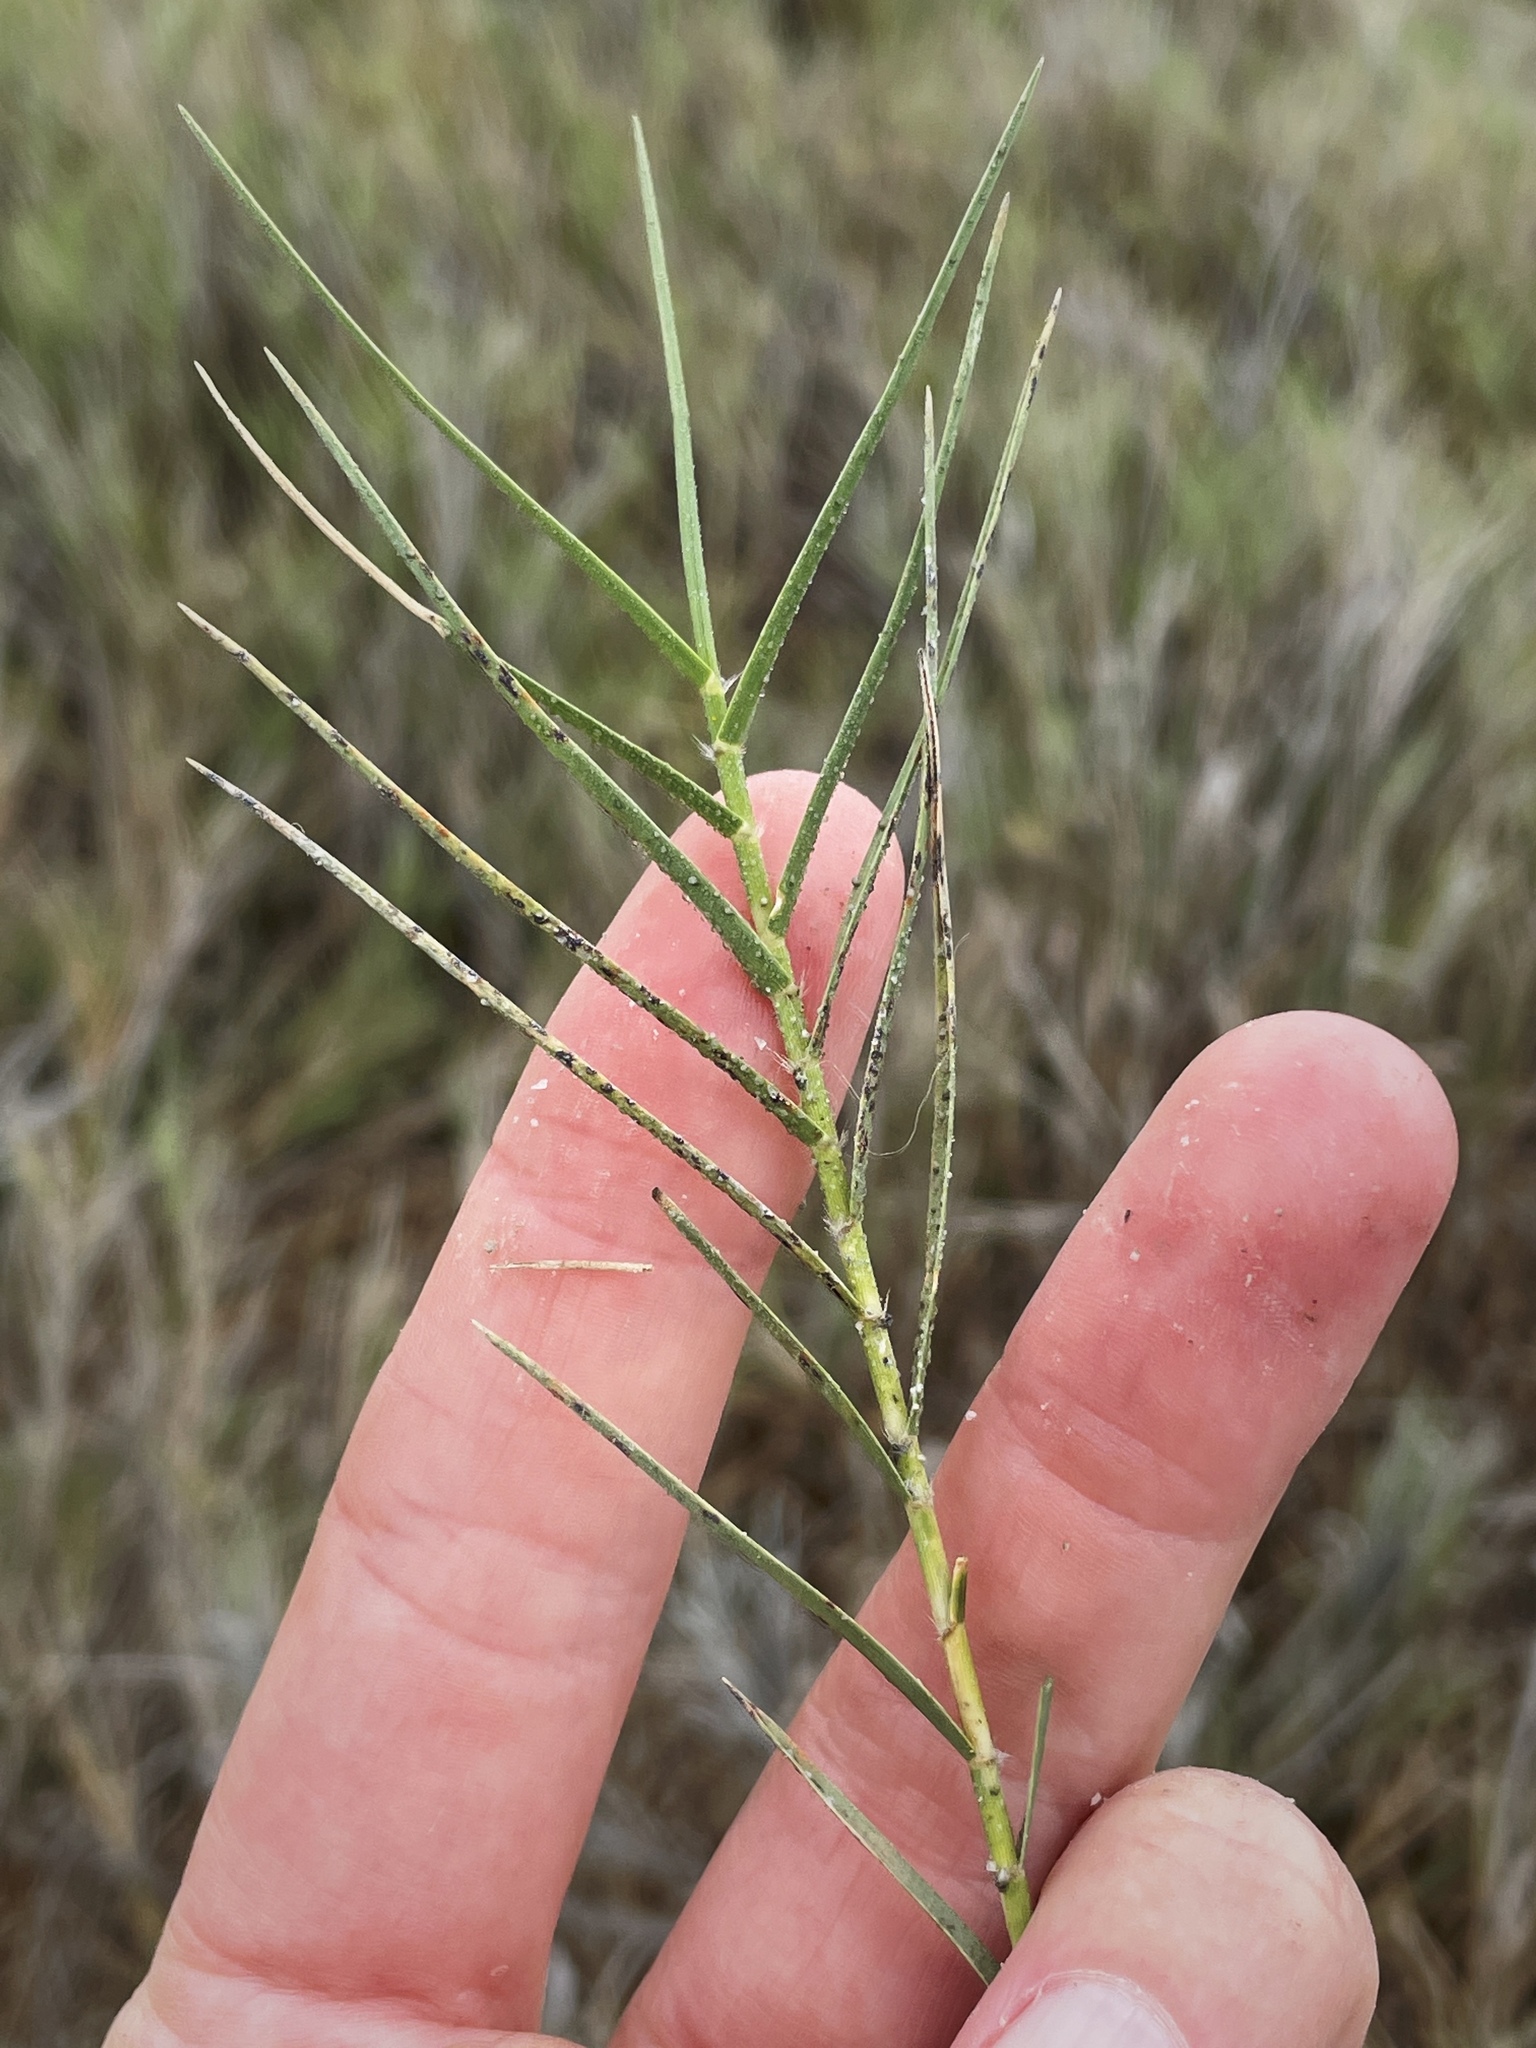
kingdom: Plantae
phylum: Tracheophyta
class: Liliopsida
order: Poales
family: Poaceae
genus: Distichlis
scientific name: Distichlis spicata
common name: Saltgrass
